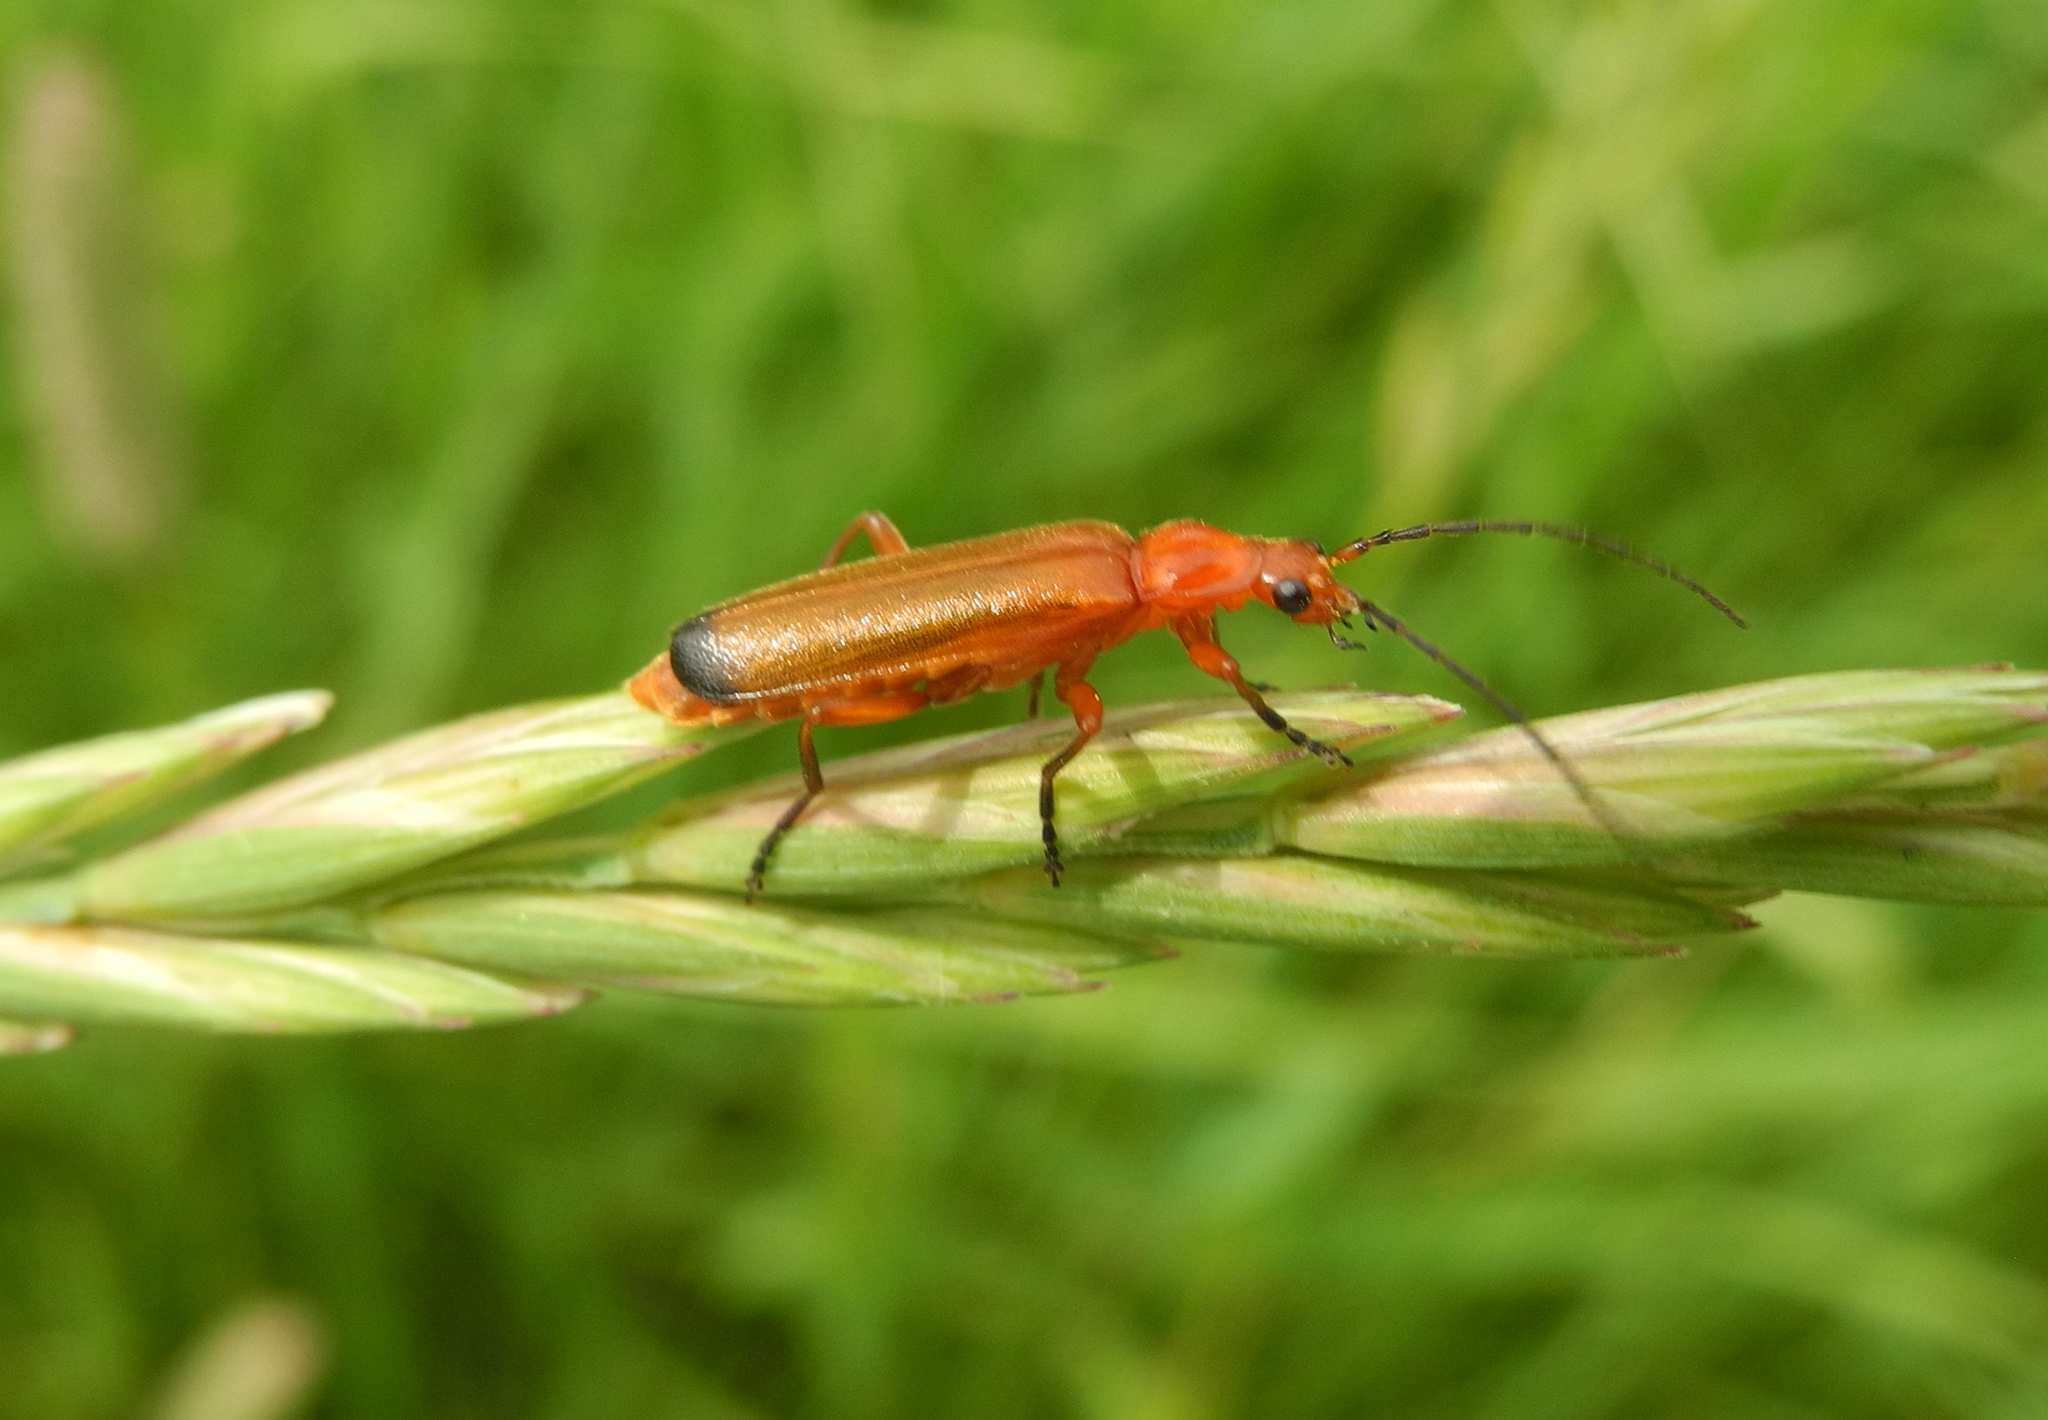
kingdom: Animalia
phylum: Arthropoda
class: Insecta
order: Coleoptera
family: Cantharidae
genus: Rhagonycha
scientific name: Rhagonycha fulva
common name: Common red soldier beetle
